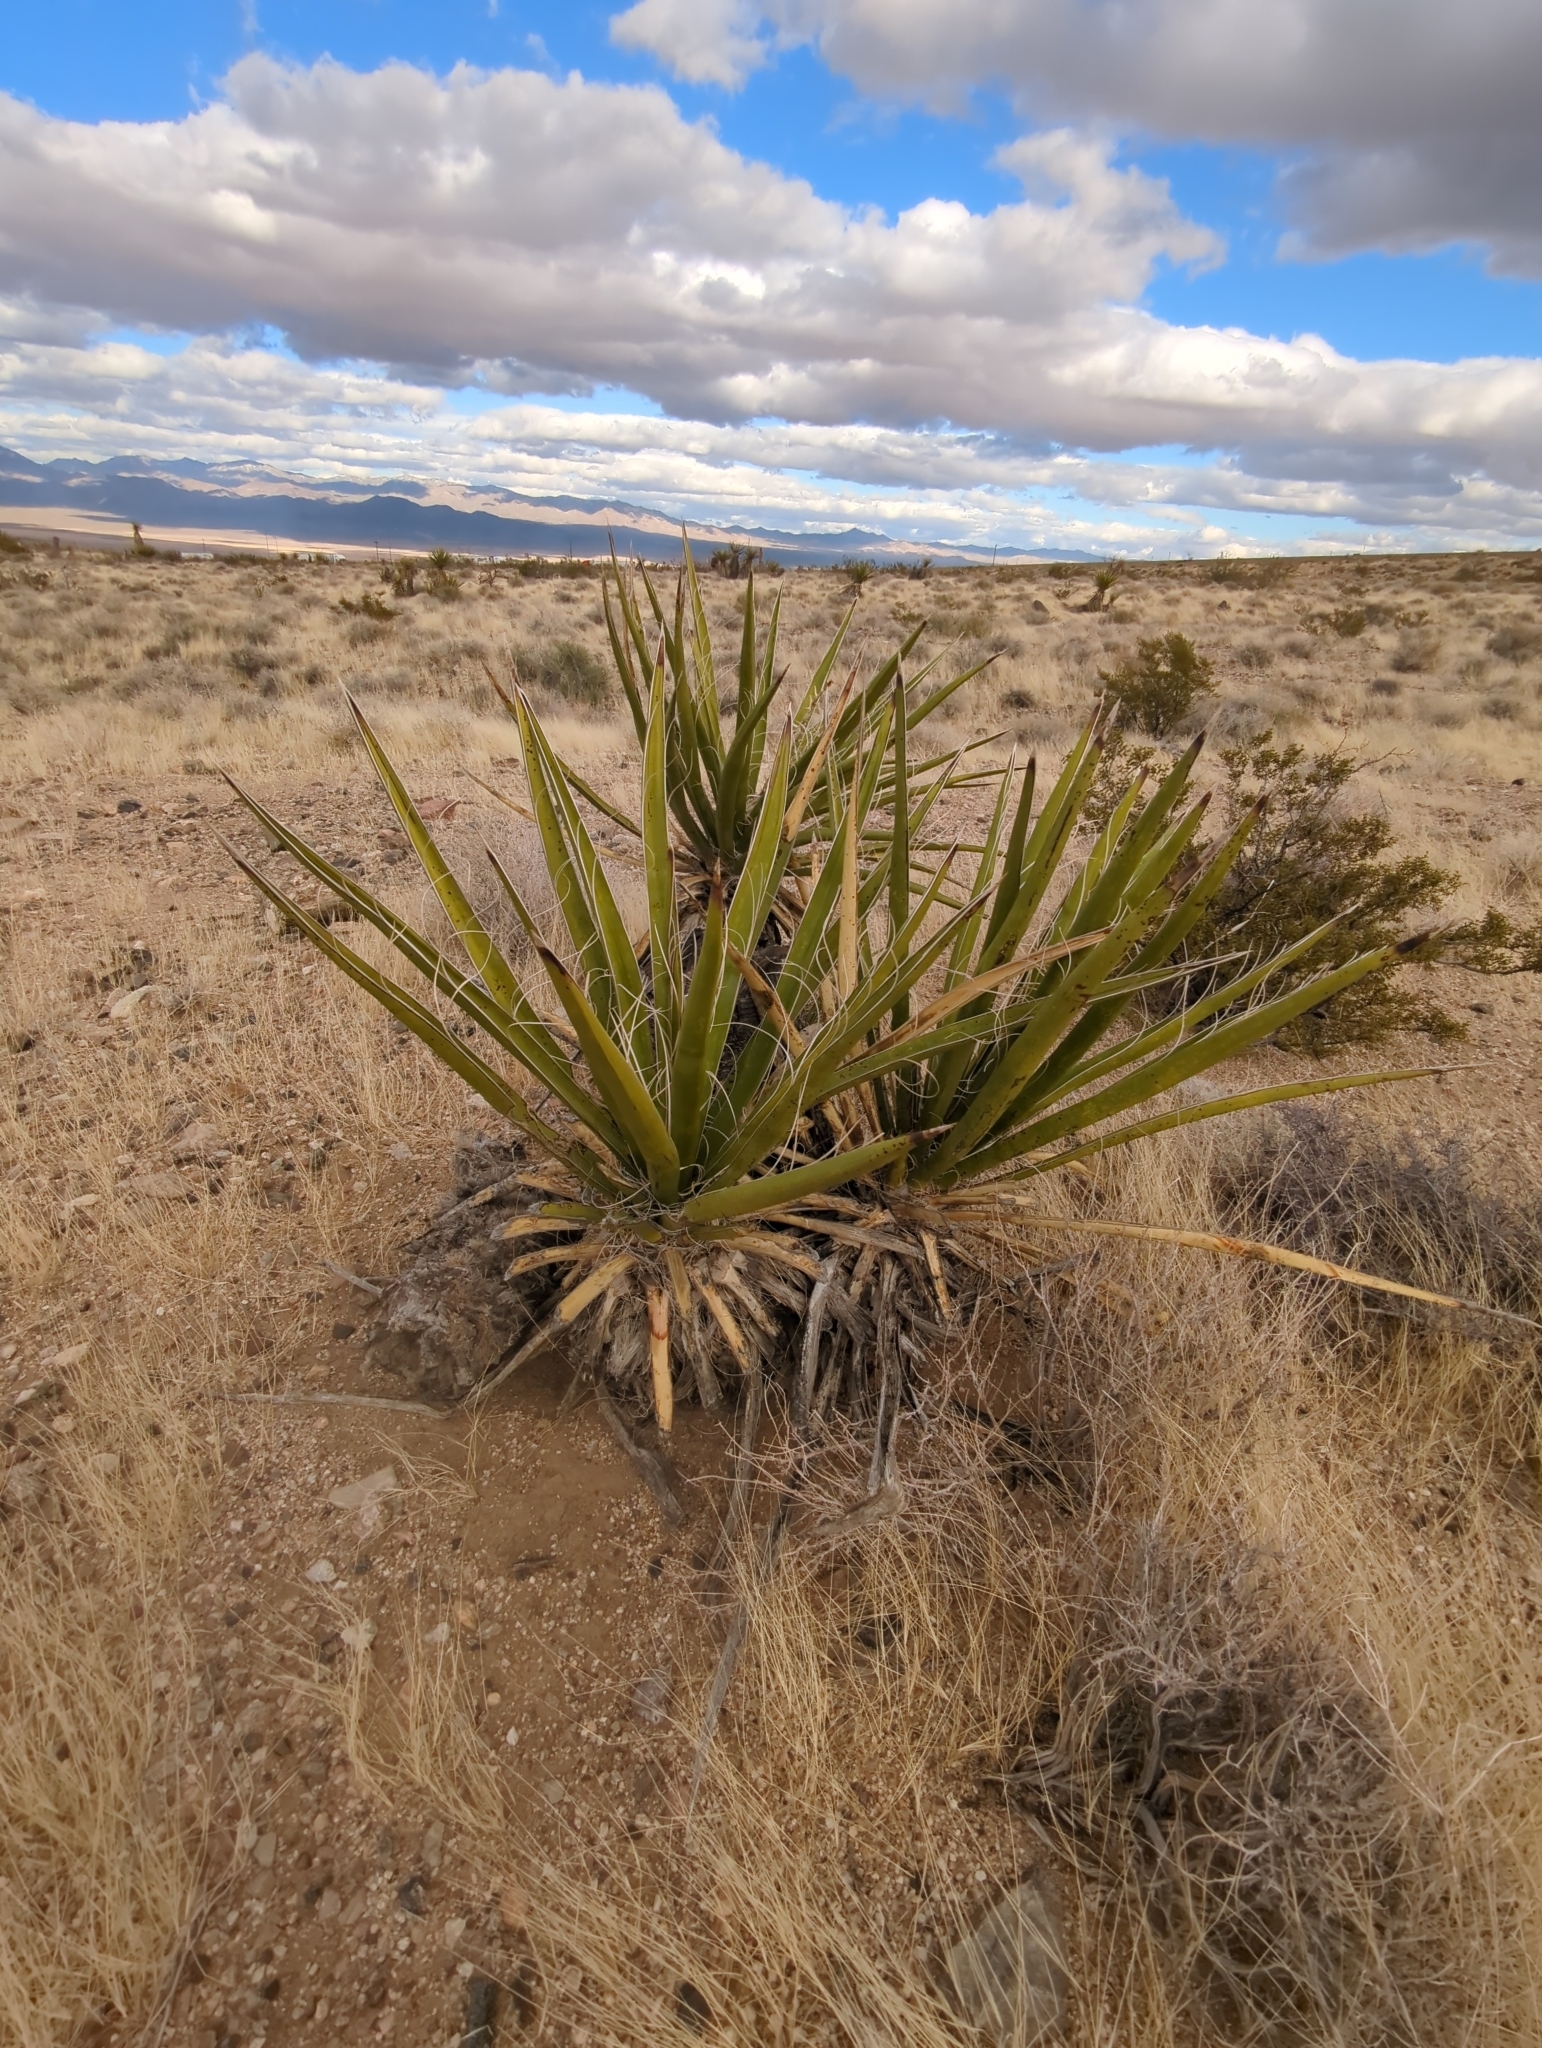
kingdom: Plantae
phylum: Tracheophyta
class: Liliopsida
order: Asparagales
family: Asparagaceae
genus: Yucca
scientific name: Yucca schidigera
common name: Mojave yucca
